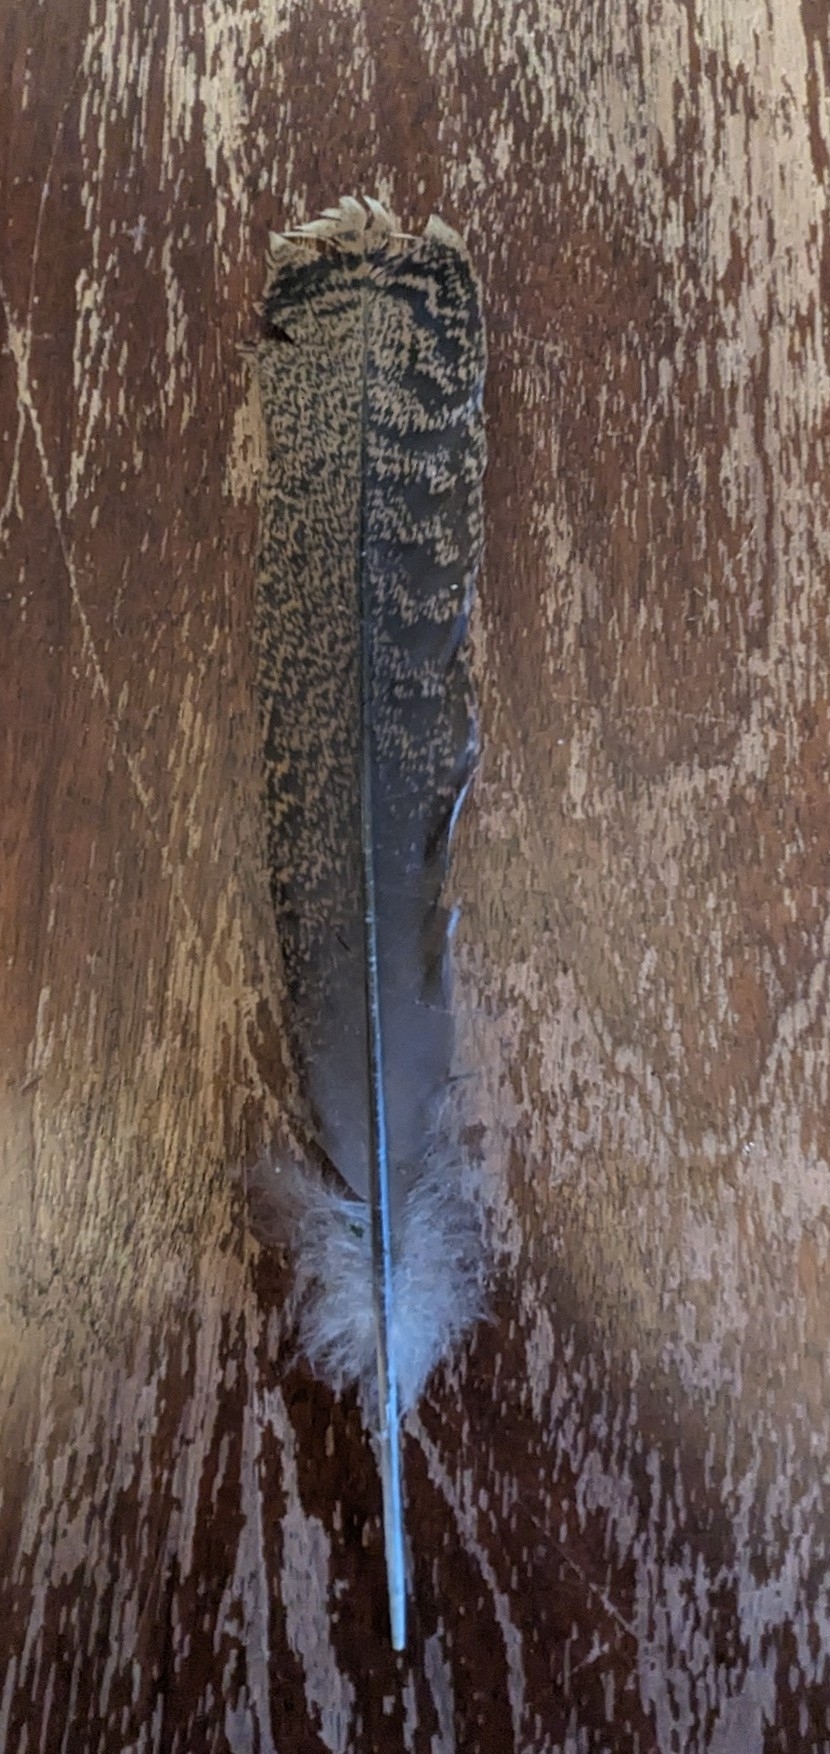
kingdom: Animalia
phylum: Chordata
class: Aves
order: Galliformes
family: Phasianidae
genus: Meleagris
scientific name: Meleagris gallopavo
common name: Wild turkey
